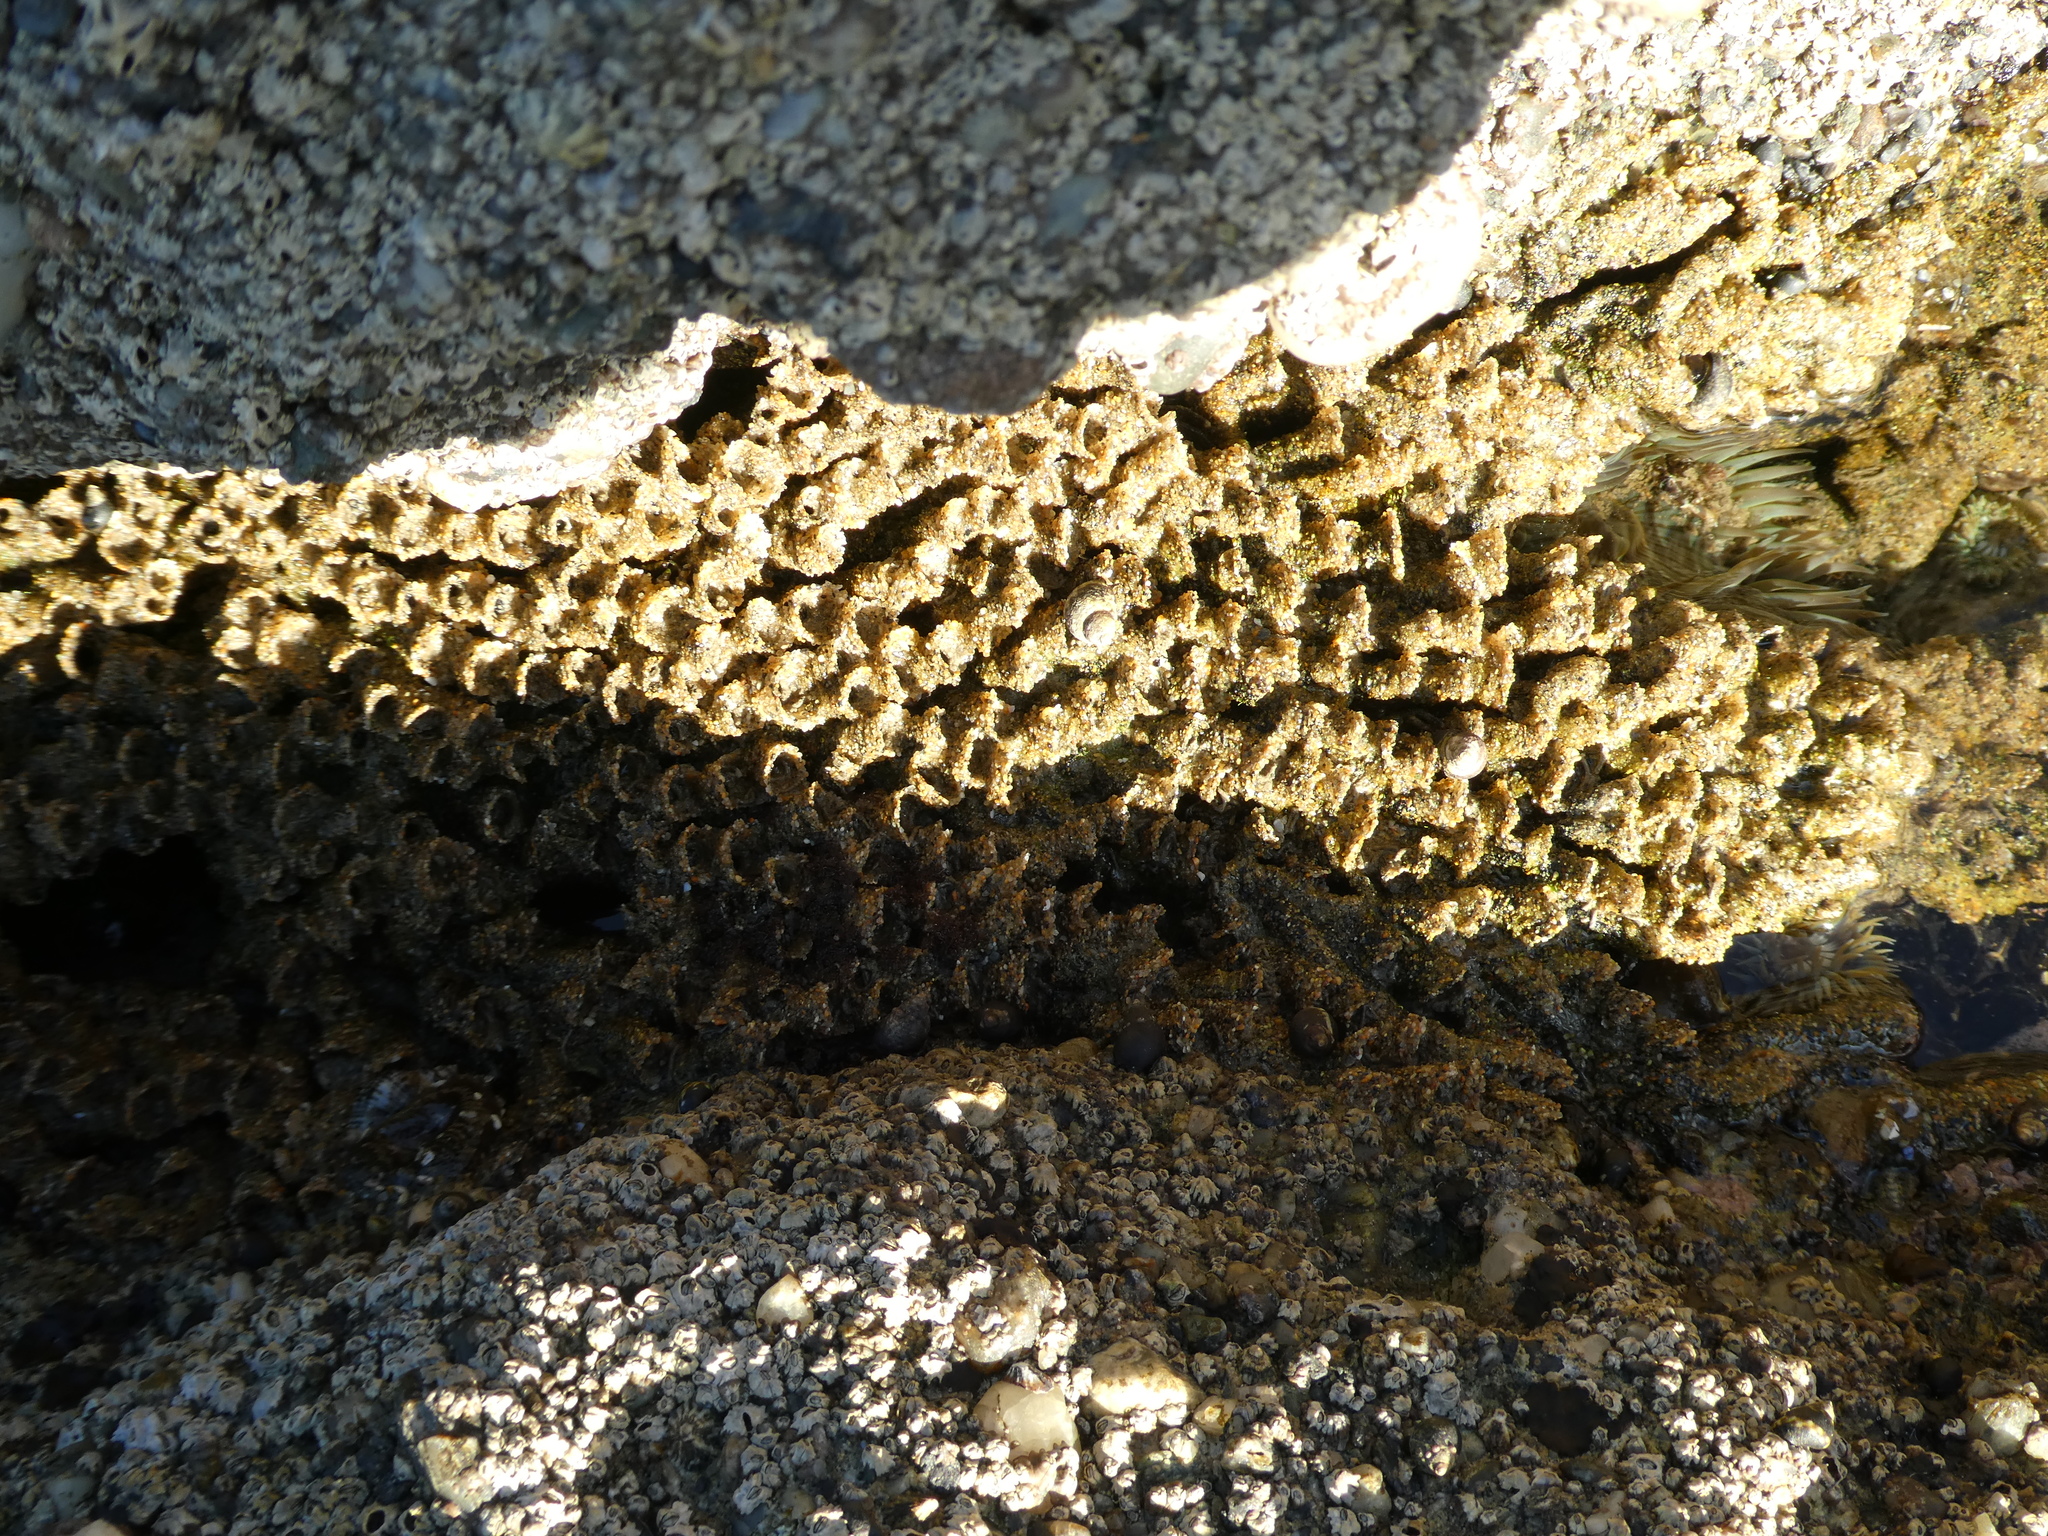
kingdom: Animalia
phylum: Annelida
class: Polychaeta
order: Sabellida
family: Sabellariidae
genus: Phragmatopoma
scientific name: Phragmatopoma californica
